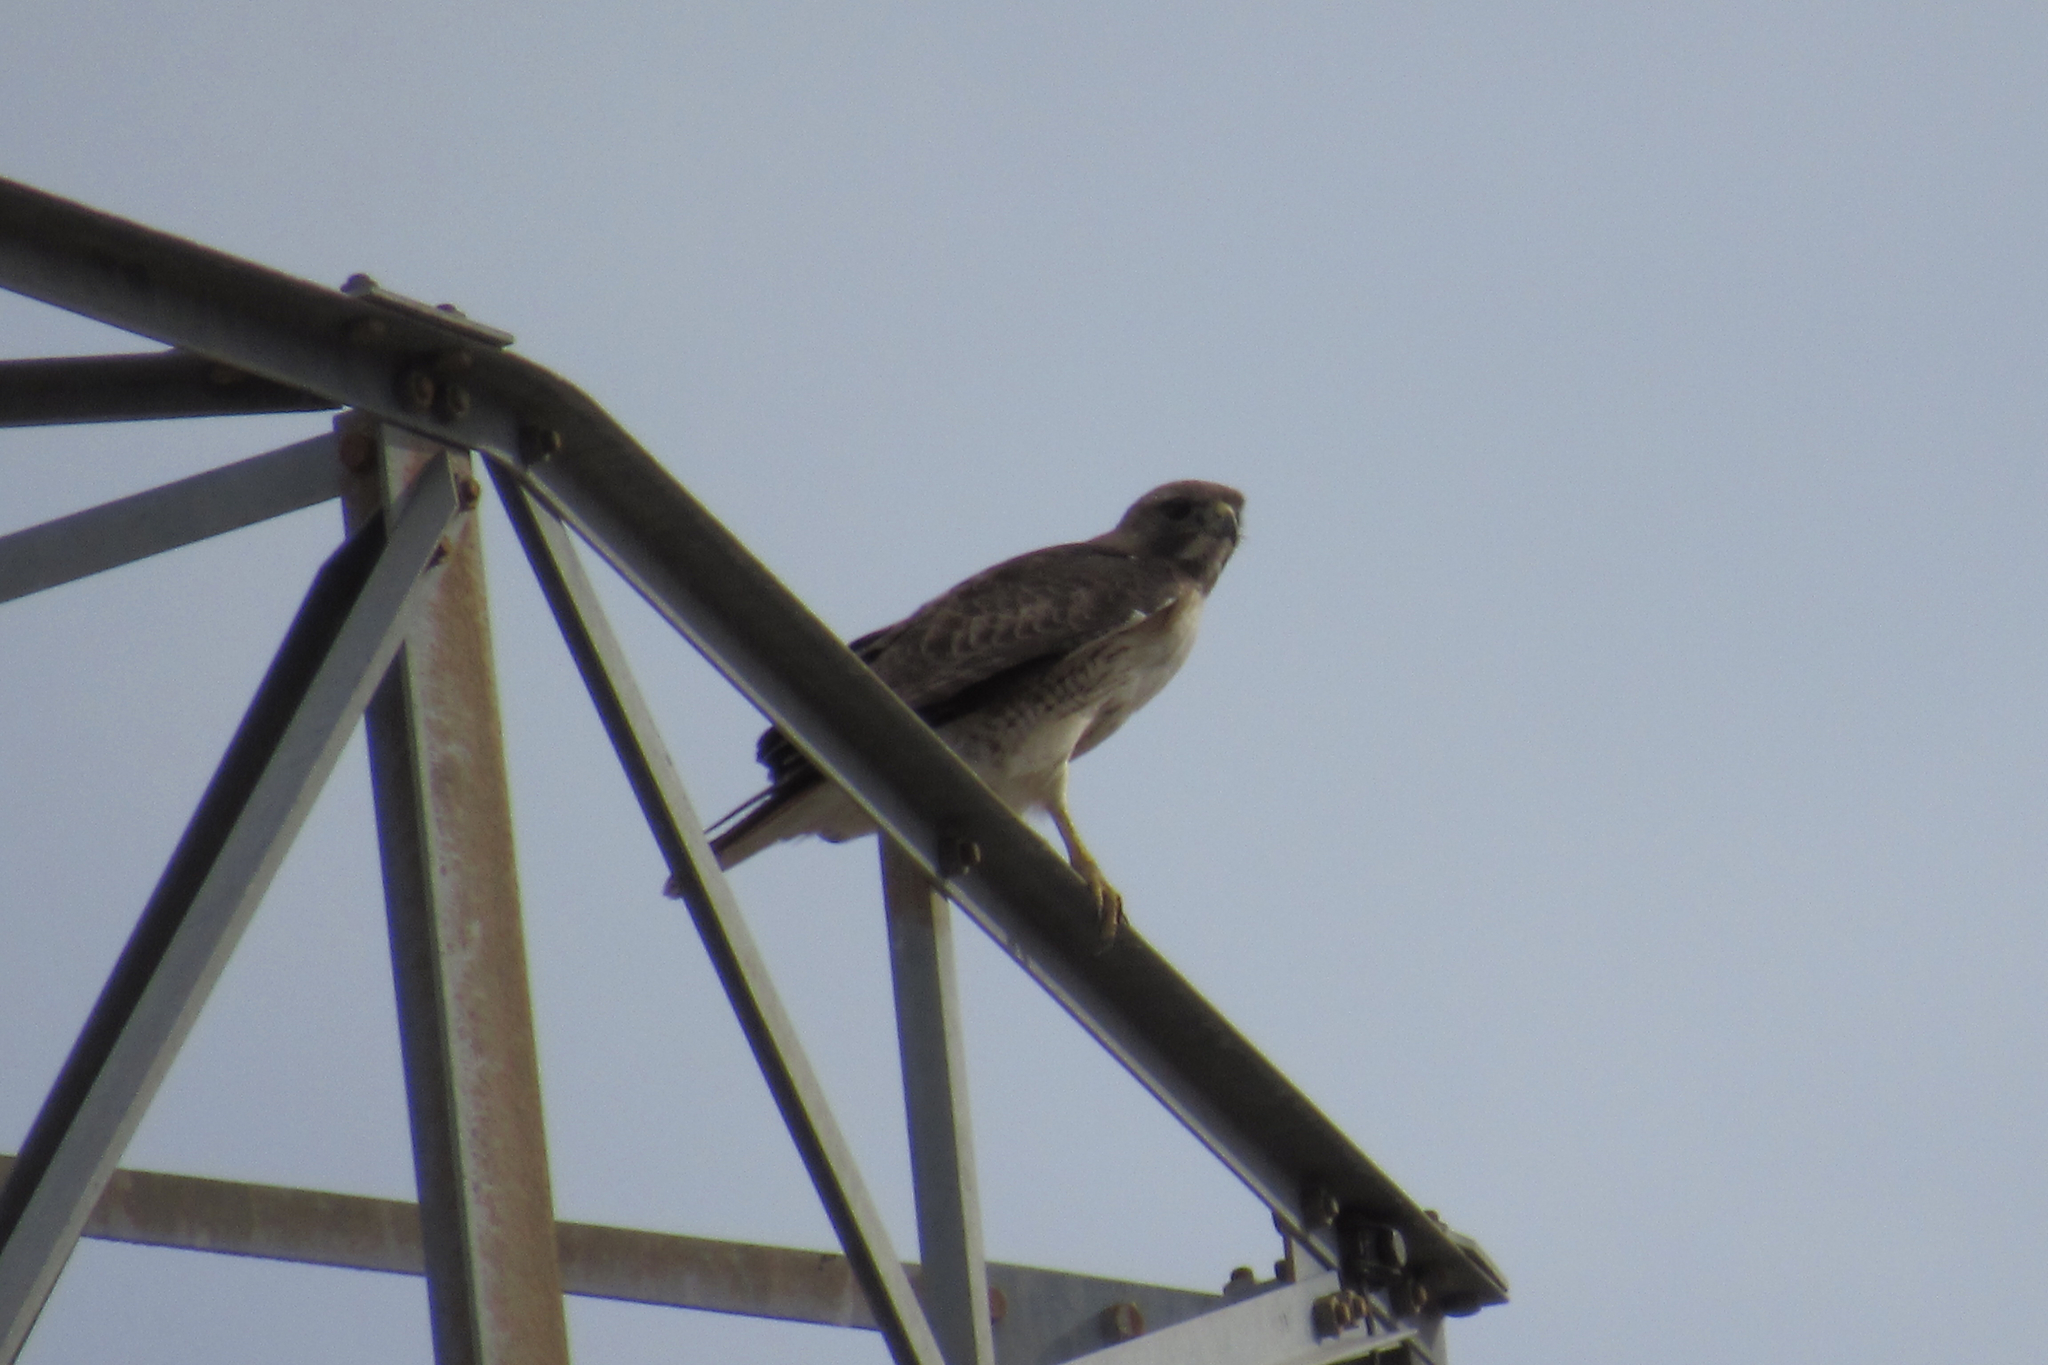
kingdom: Animalia
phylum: Chordata
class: Aves
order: Accipitriformes
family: Accipitridae
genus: Buteo
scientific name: Buteo jamaicensis
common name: Red-tailed hawk
